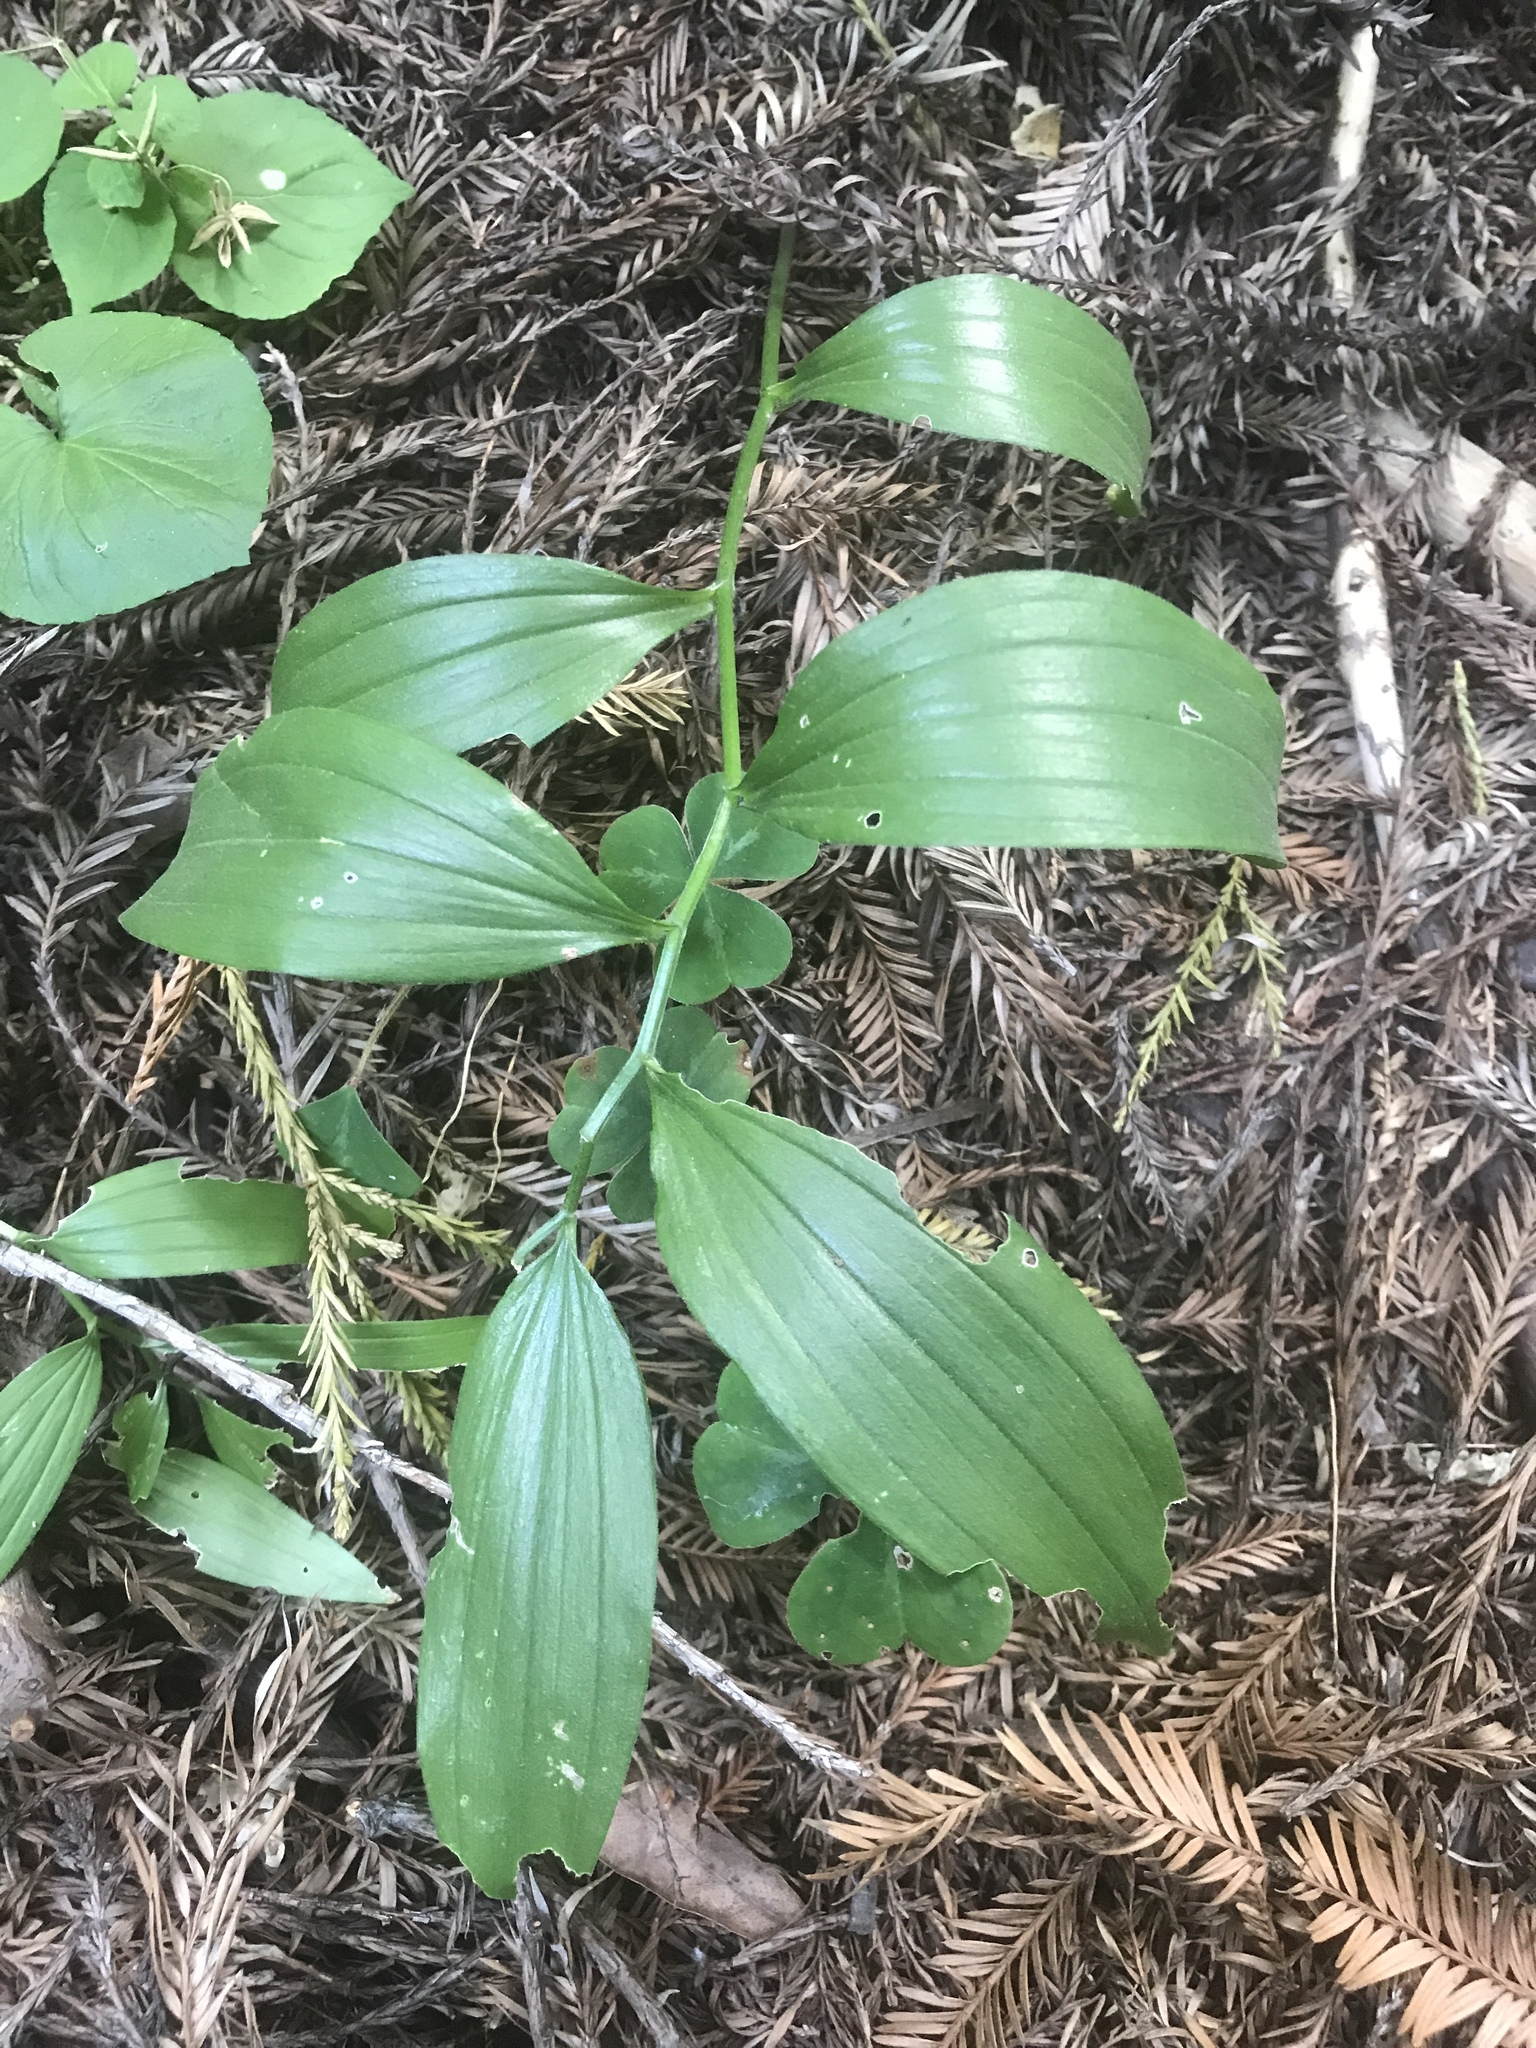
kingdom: Plantae
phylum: Tracheophyta
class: Liliopsida
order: Asparagales
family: Asparagaceae
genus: Maianthemum
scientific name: Maianthemum racemosum
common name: False spikenard
